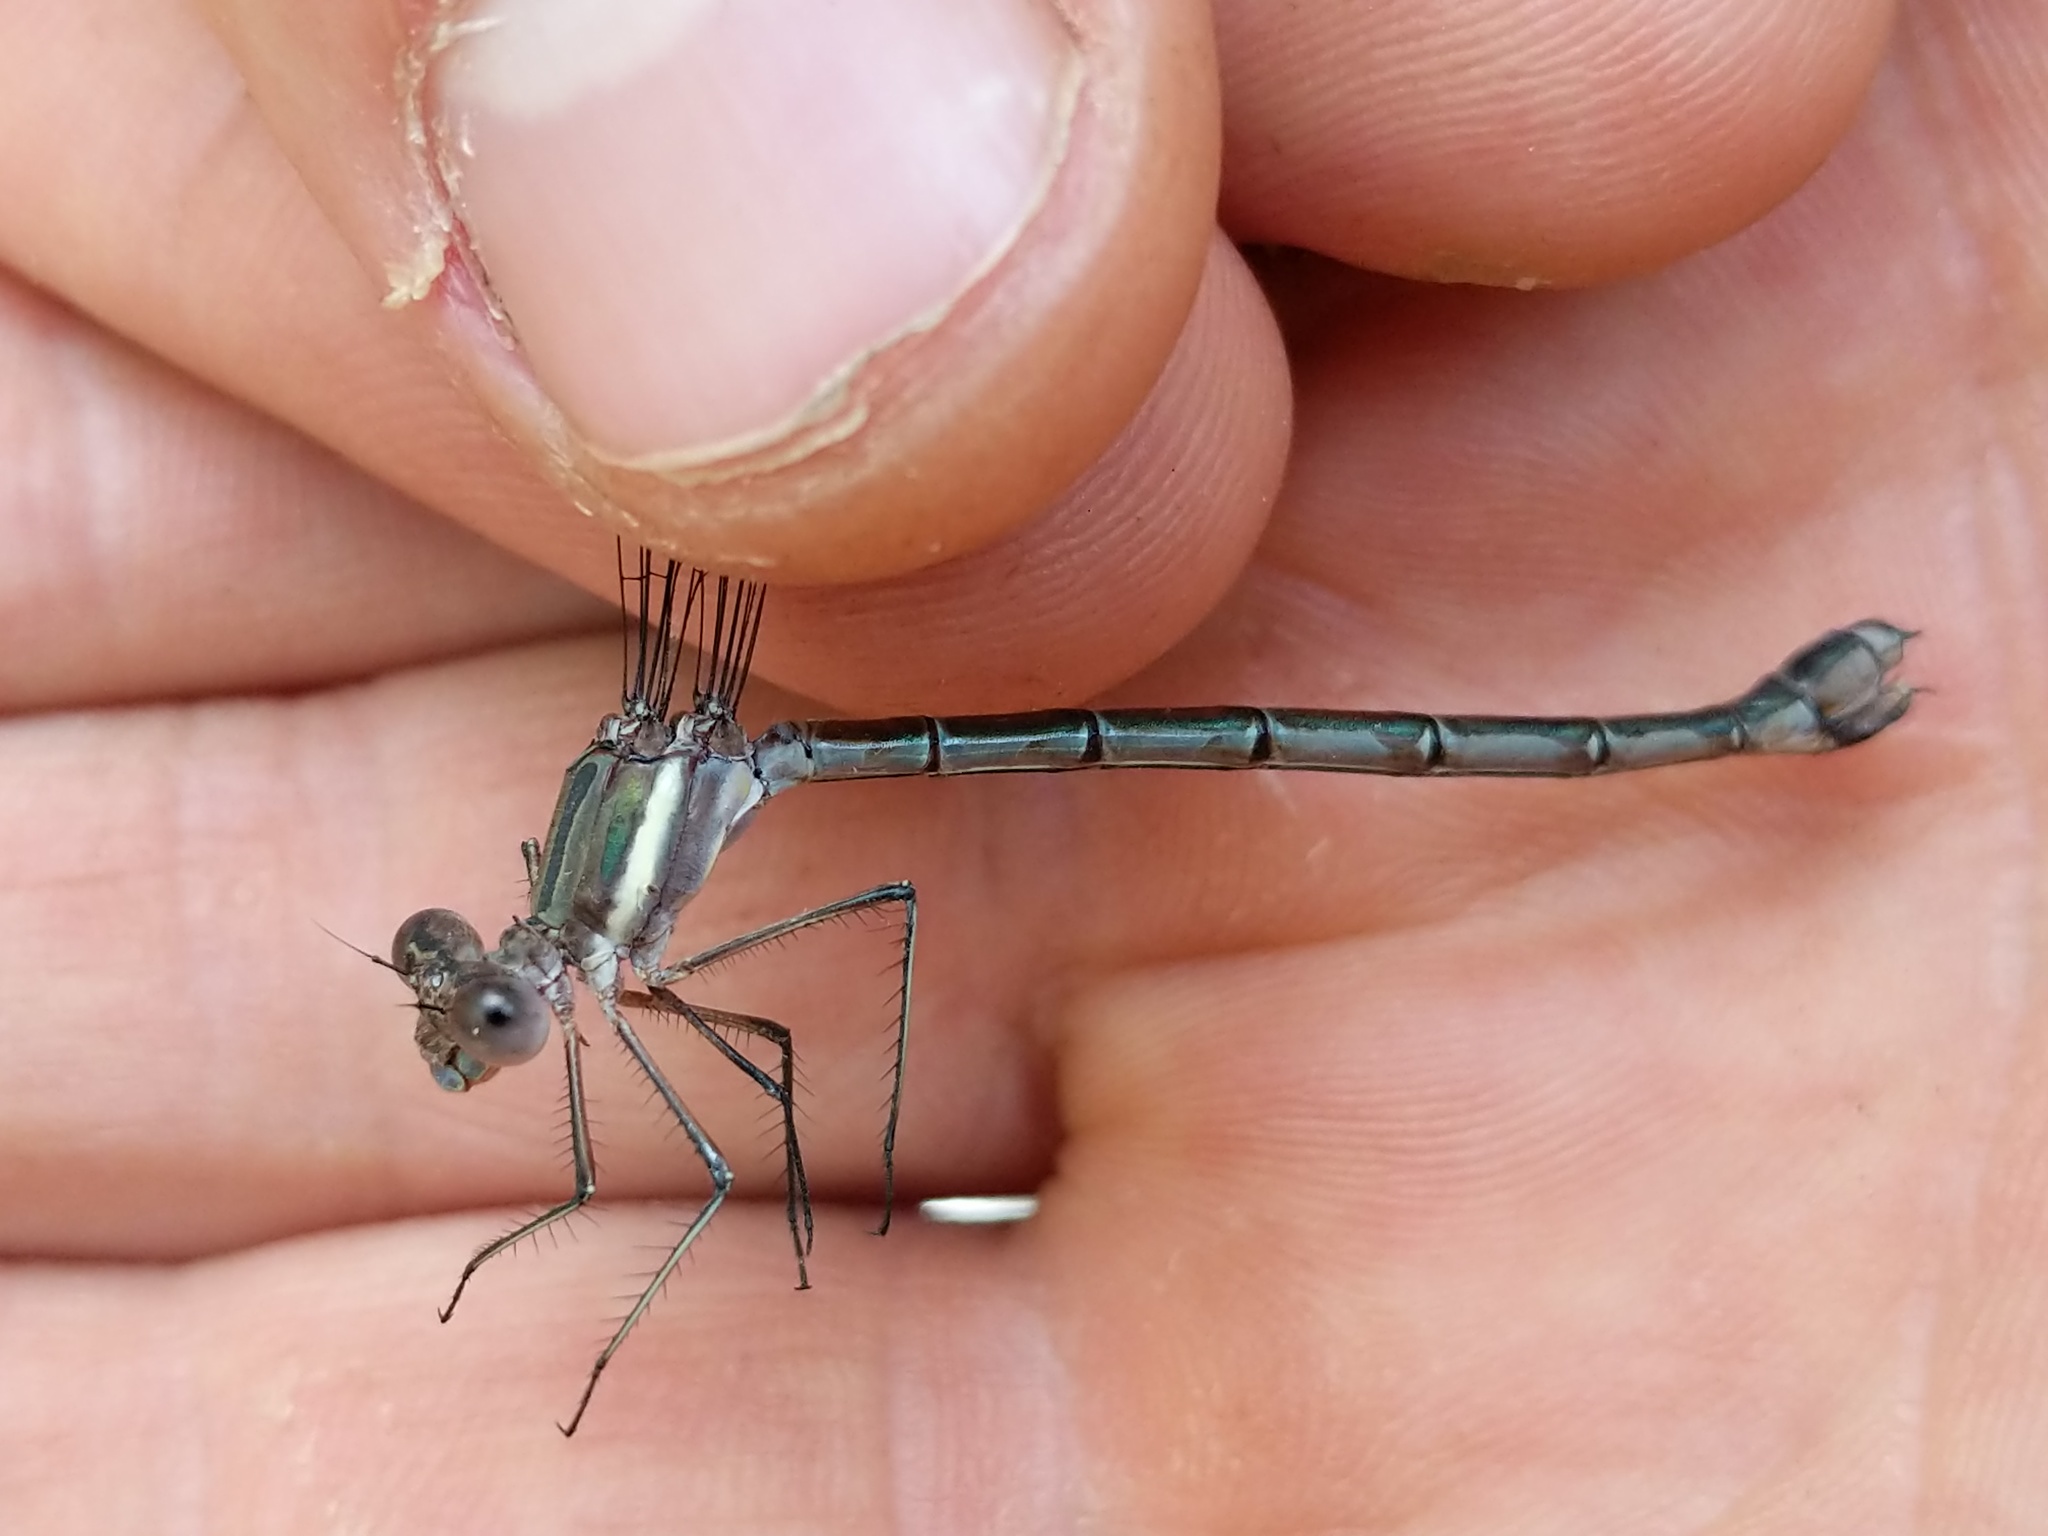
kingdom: Animalia
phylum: Arthropoda
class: Insecta
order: Odonata
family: Lestidae
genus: Archilestes
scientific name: Archilestes grandis
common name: Great spreadwing
